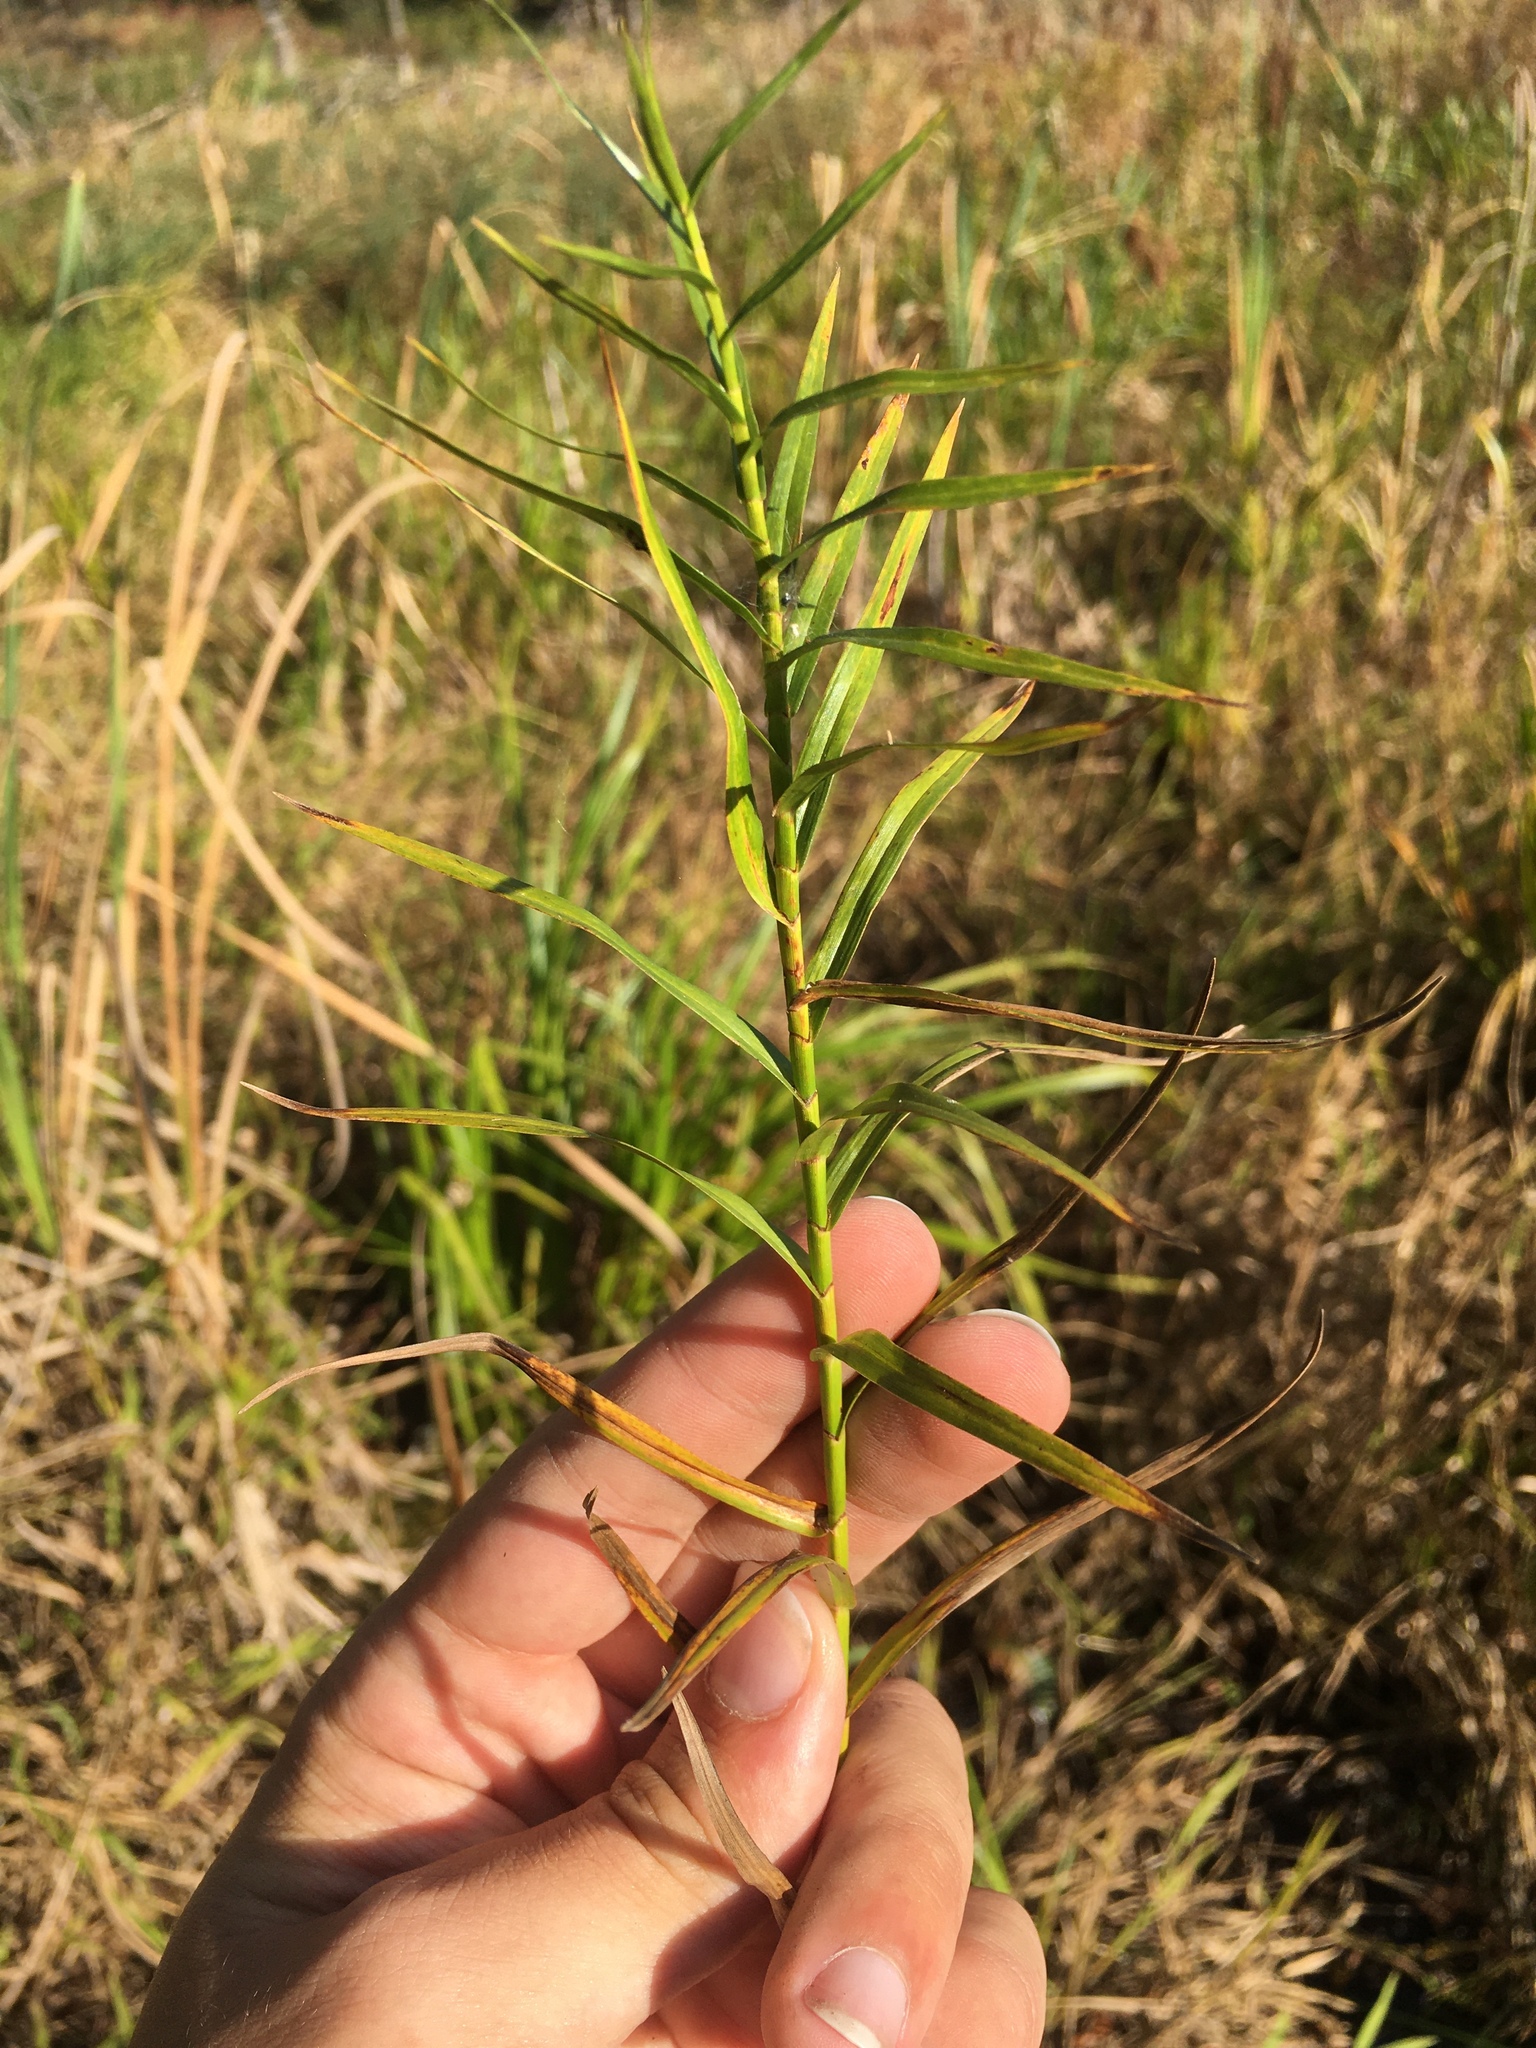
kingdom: Plantae
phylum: Tracheophyta
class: Liliopsida
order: Poales
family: Cyperaceae
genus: Dulichium
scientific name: Dulichium arundinaceum
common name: Three-way sedge
